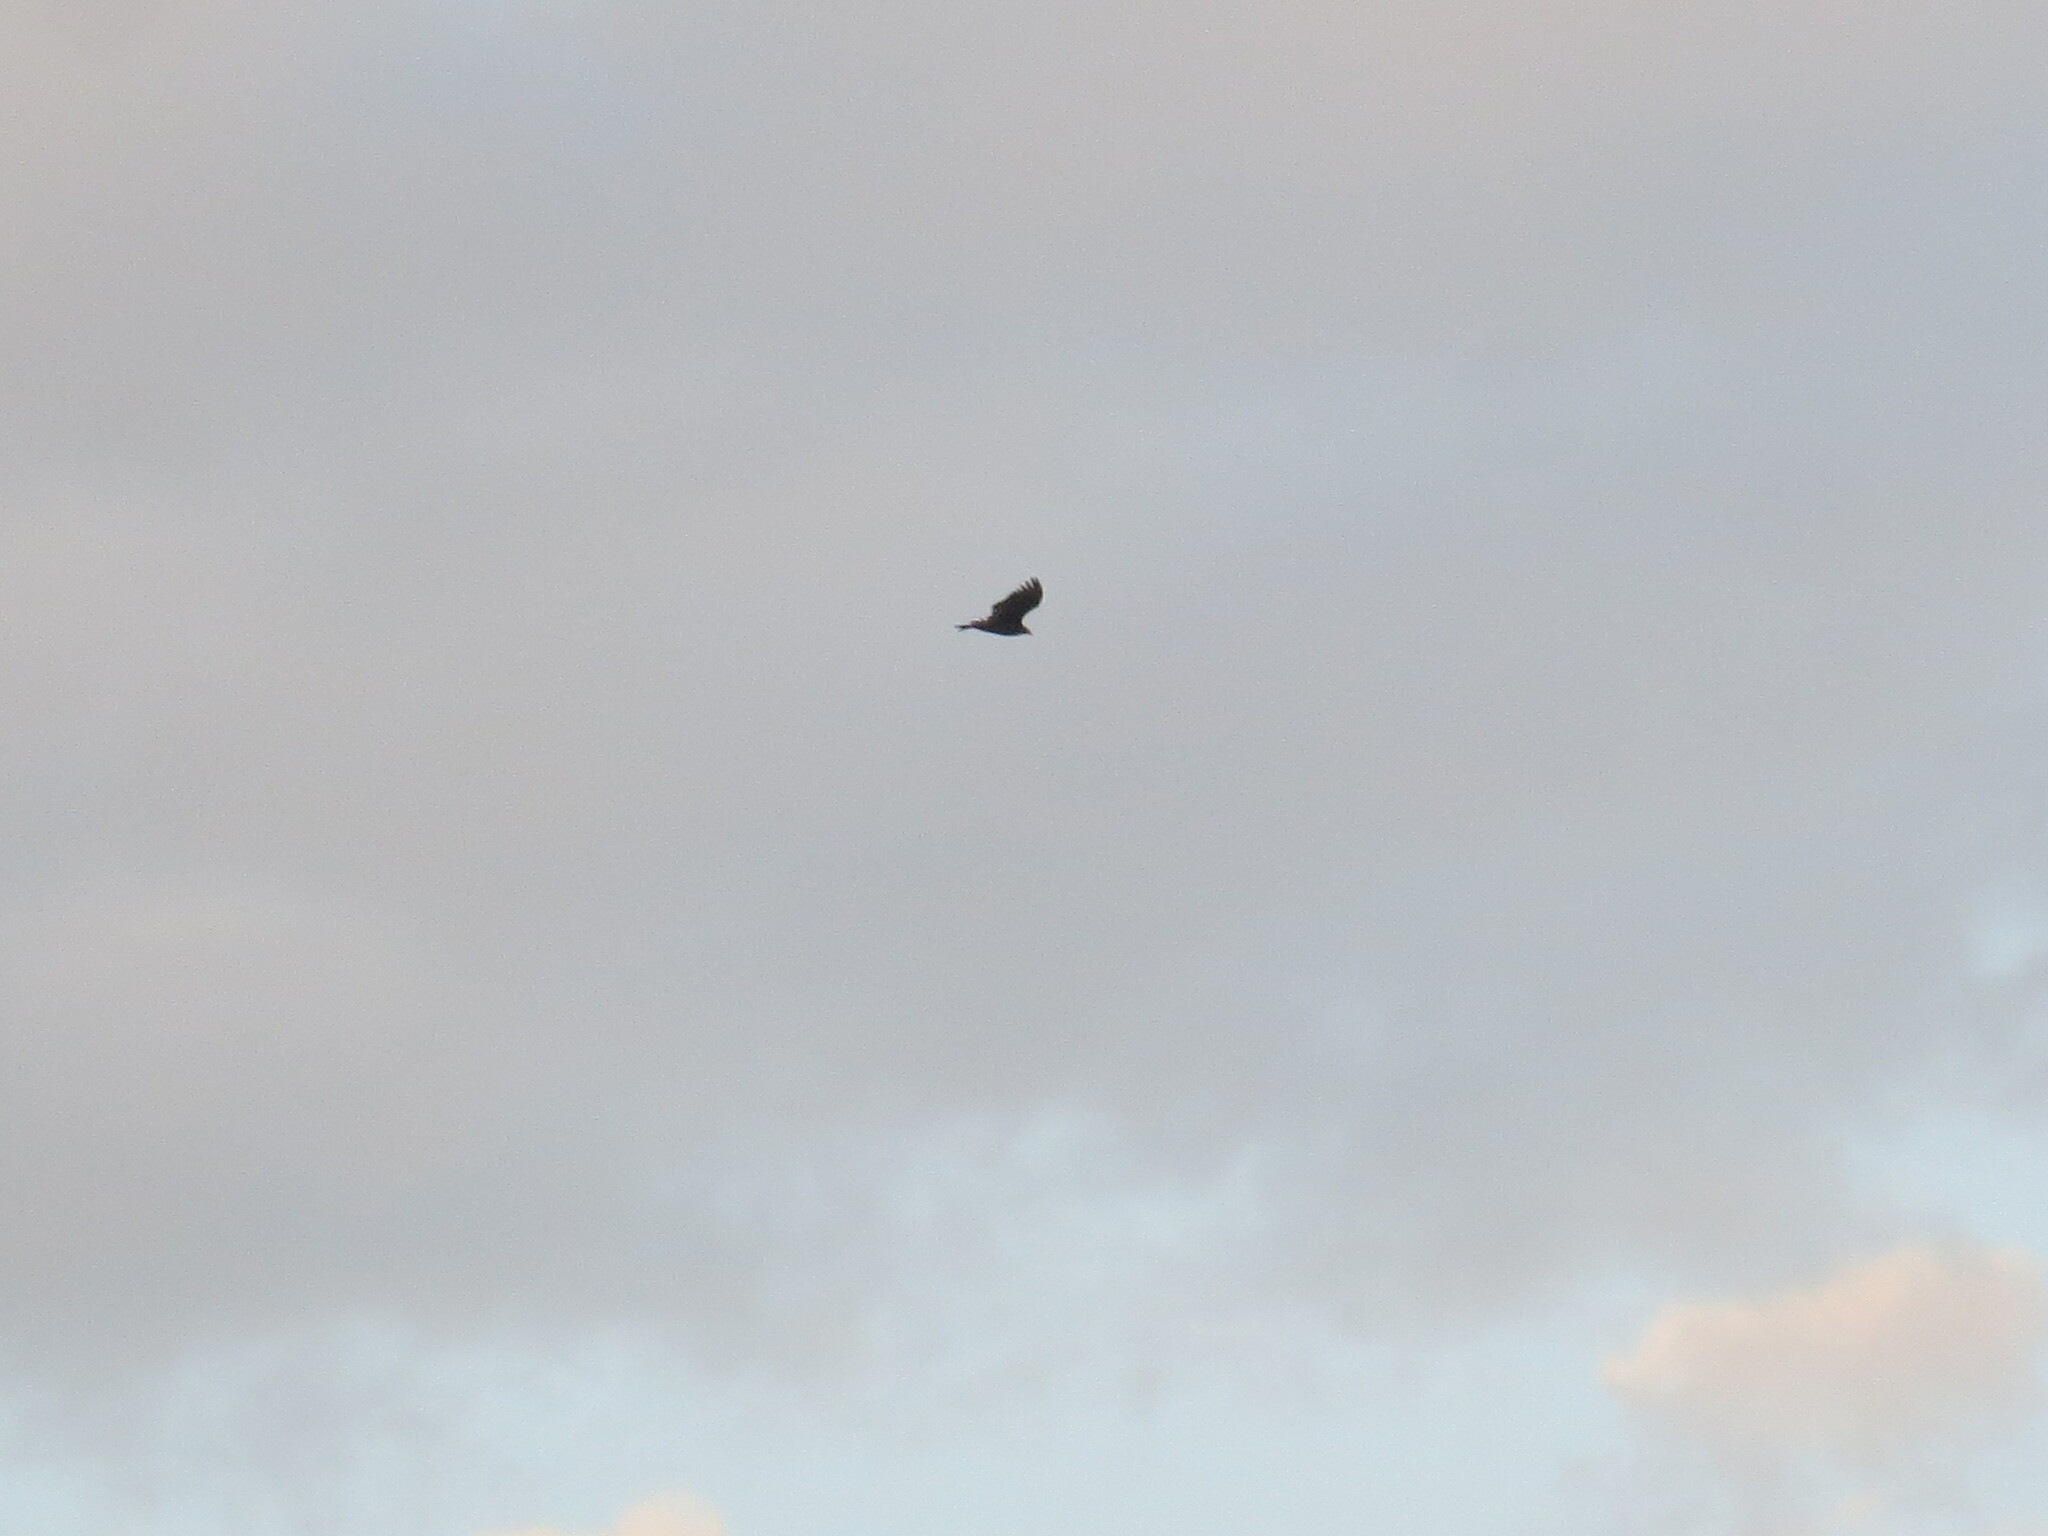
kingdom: Animalia
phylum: Chordata
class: Aves
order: Accipitriformes
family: Cathartidae
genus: Cathartes
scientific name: Cathartes aura
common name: Turkey vulture
